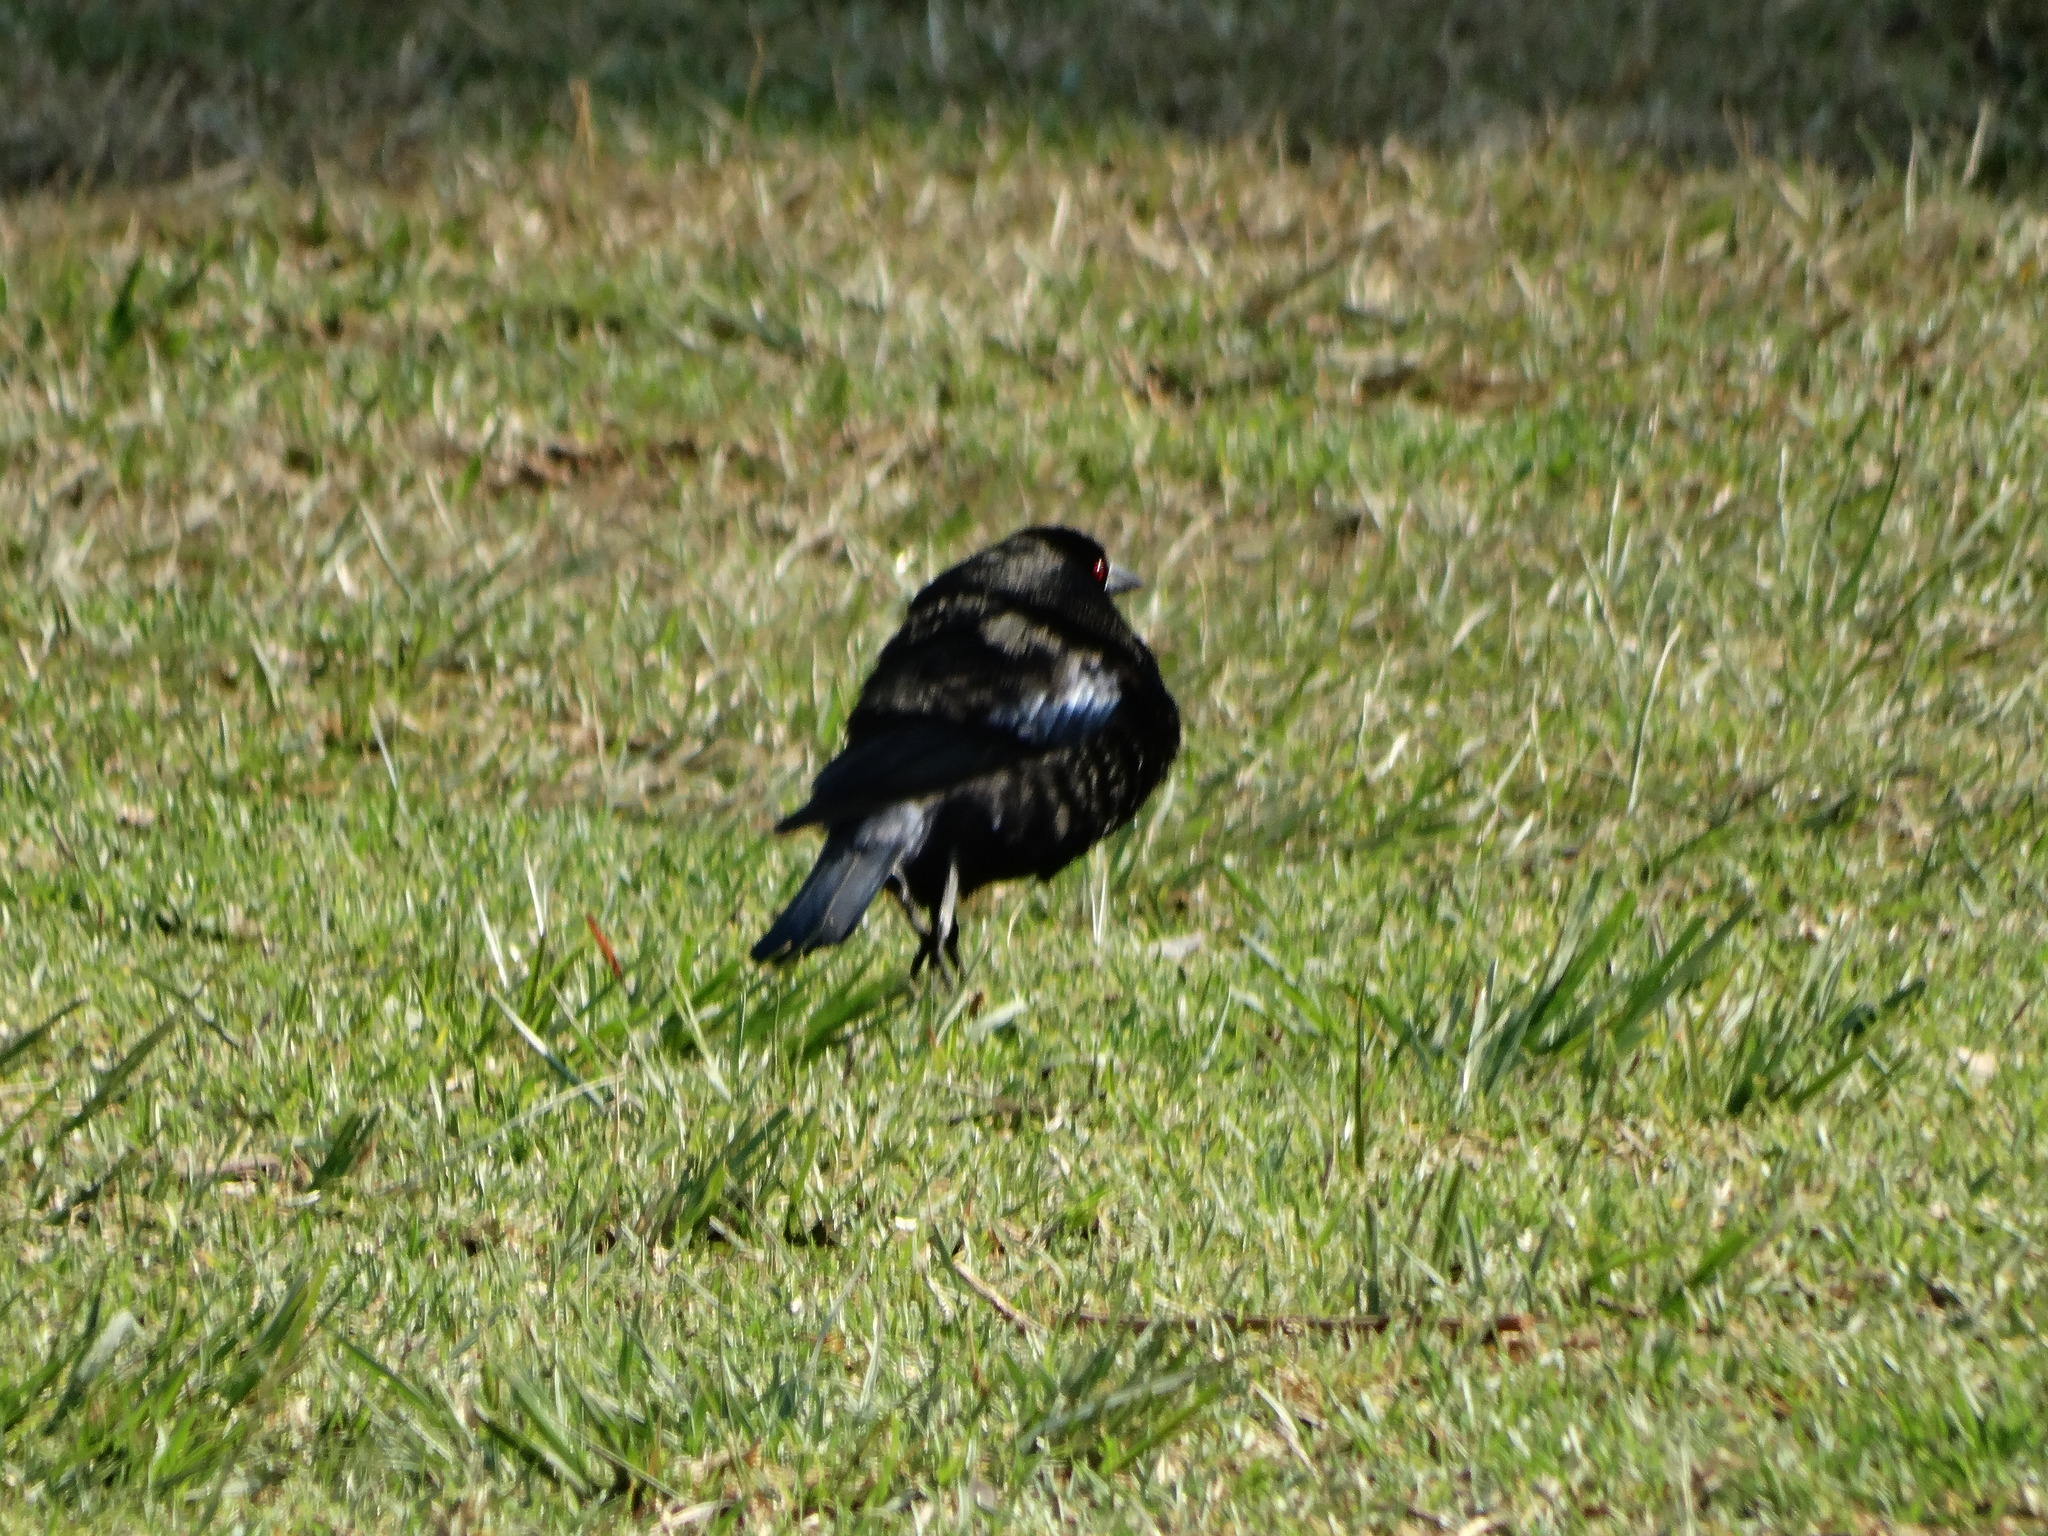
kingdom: Animalia
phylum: Chordata
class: Aves
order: Passeriformes
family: Icteridae
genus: Molothrus
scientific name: Molothrus aeneus
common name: Bronzed cowbird
